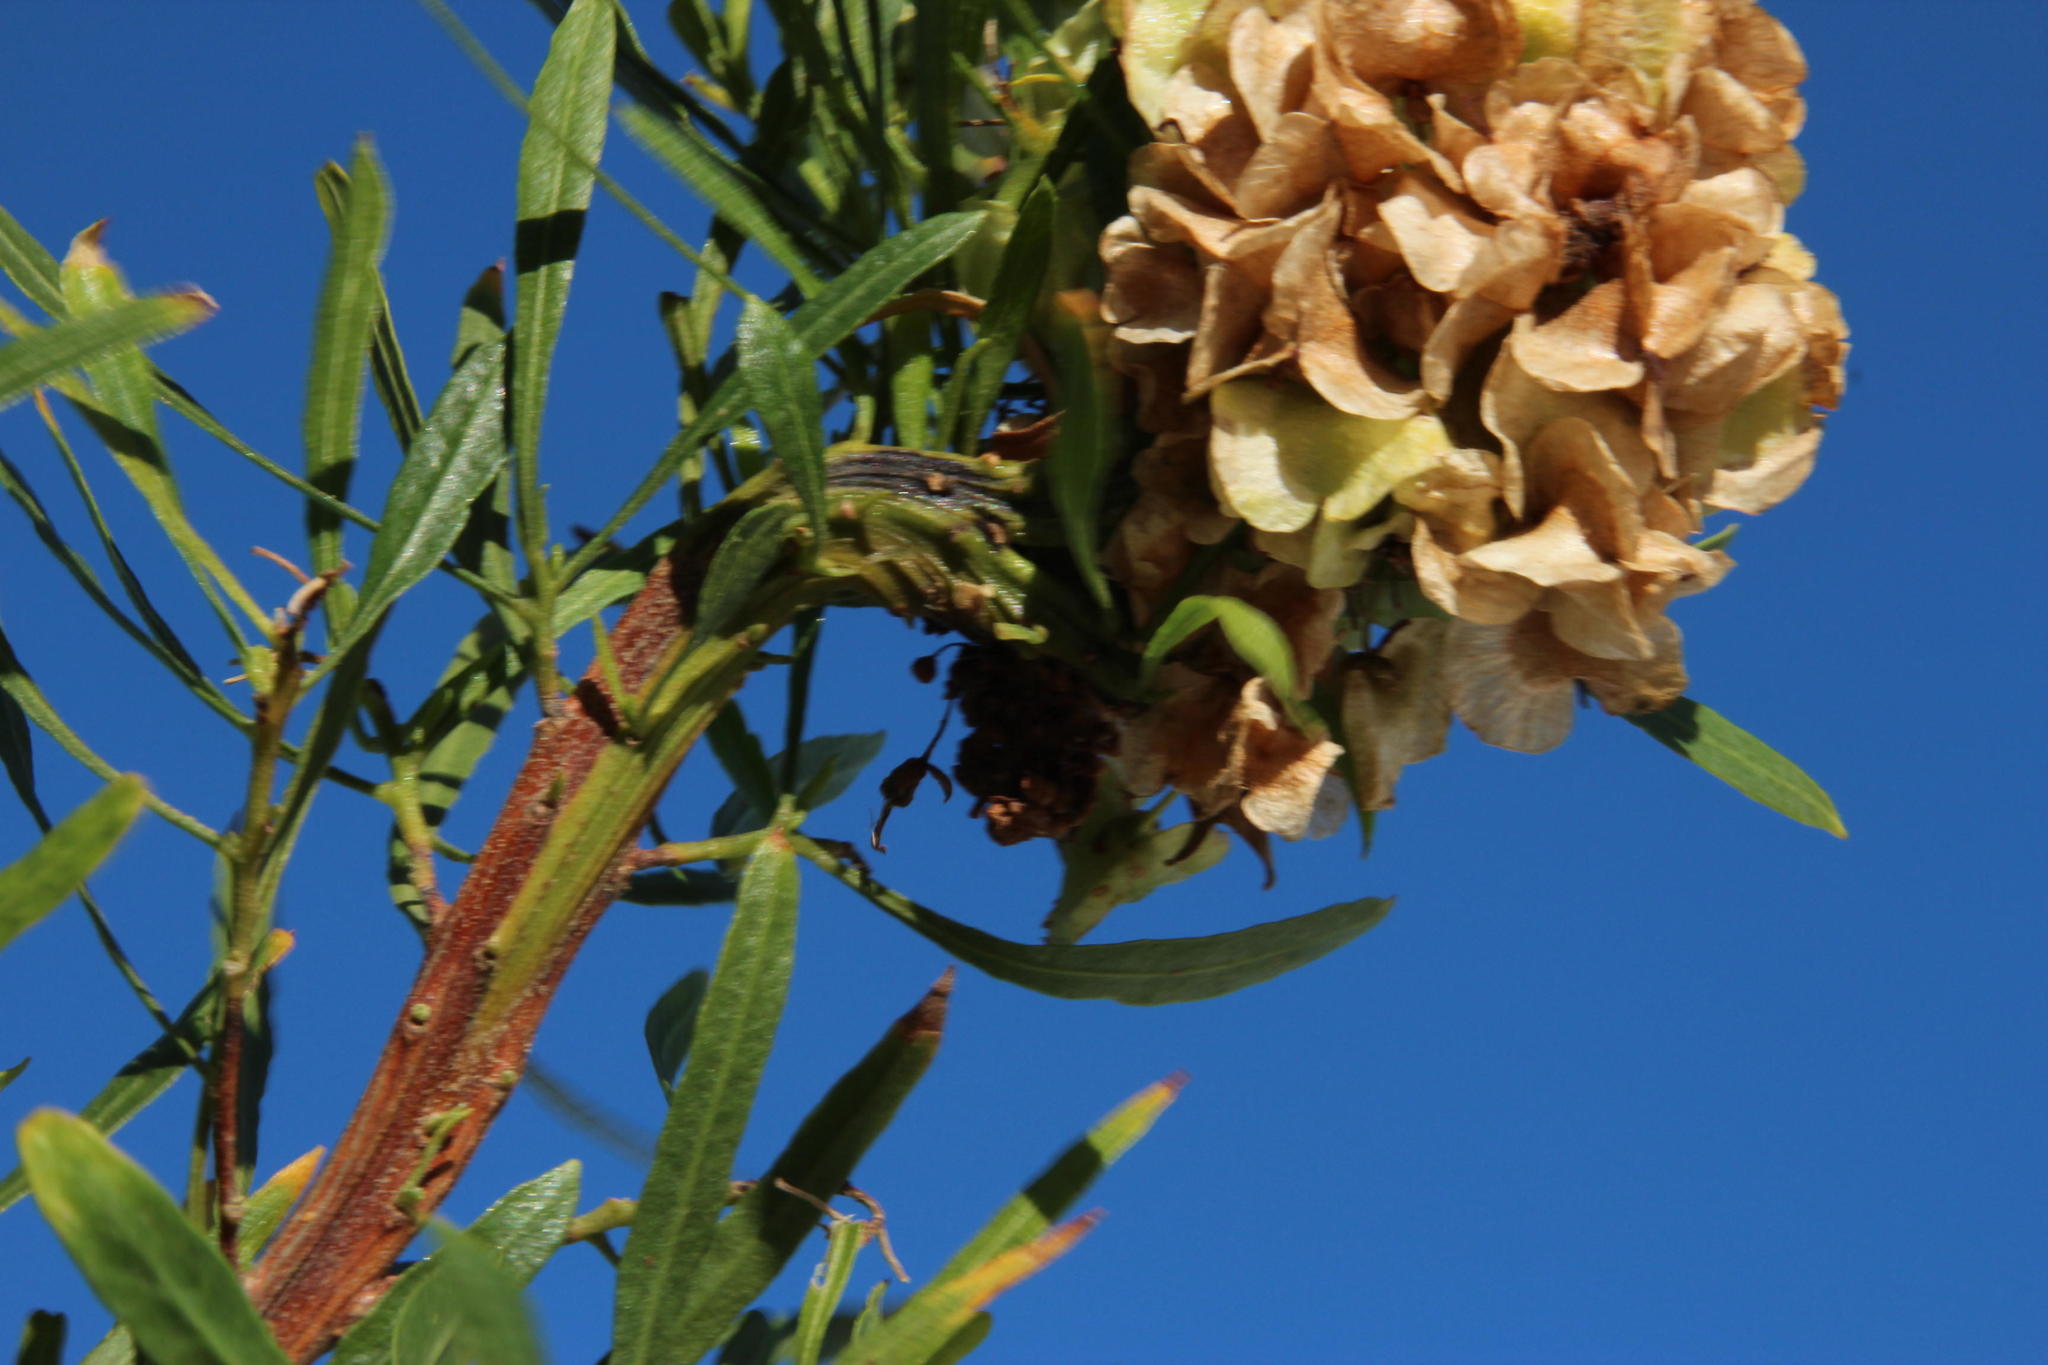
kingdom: Plantae
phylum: Tracheophyta
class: Magnoliopsida
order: Sapindales
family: Sapindaceae
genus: Dodonaea
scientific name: Dodonaea viscosa
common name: Hopbush
